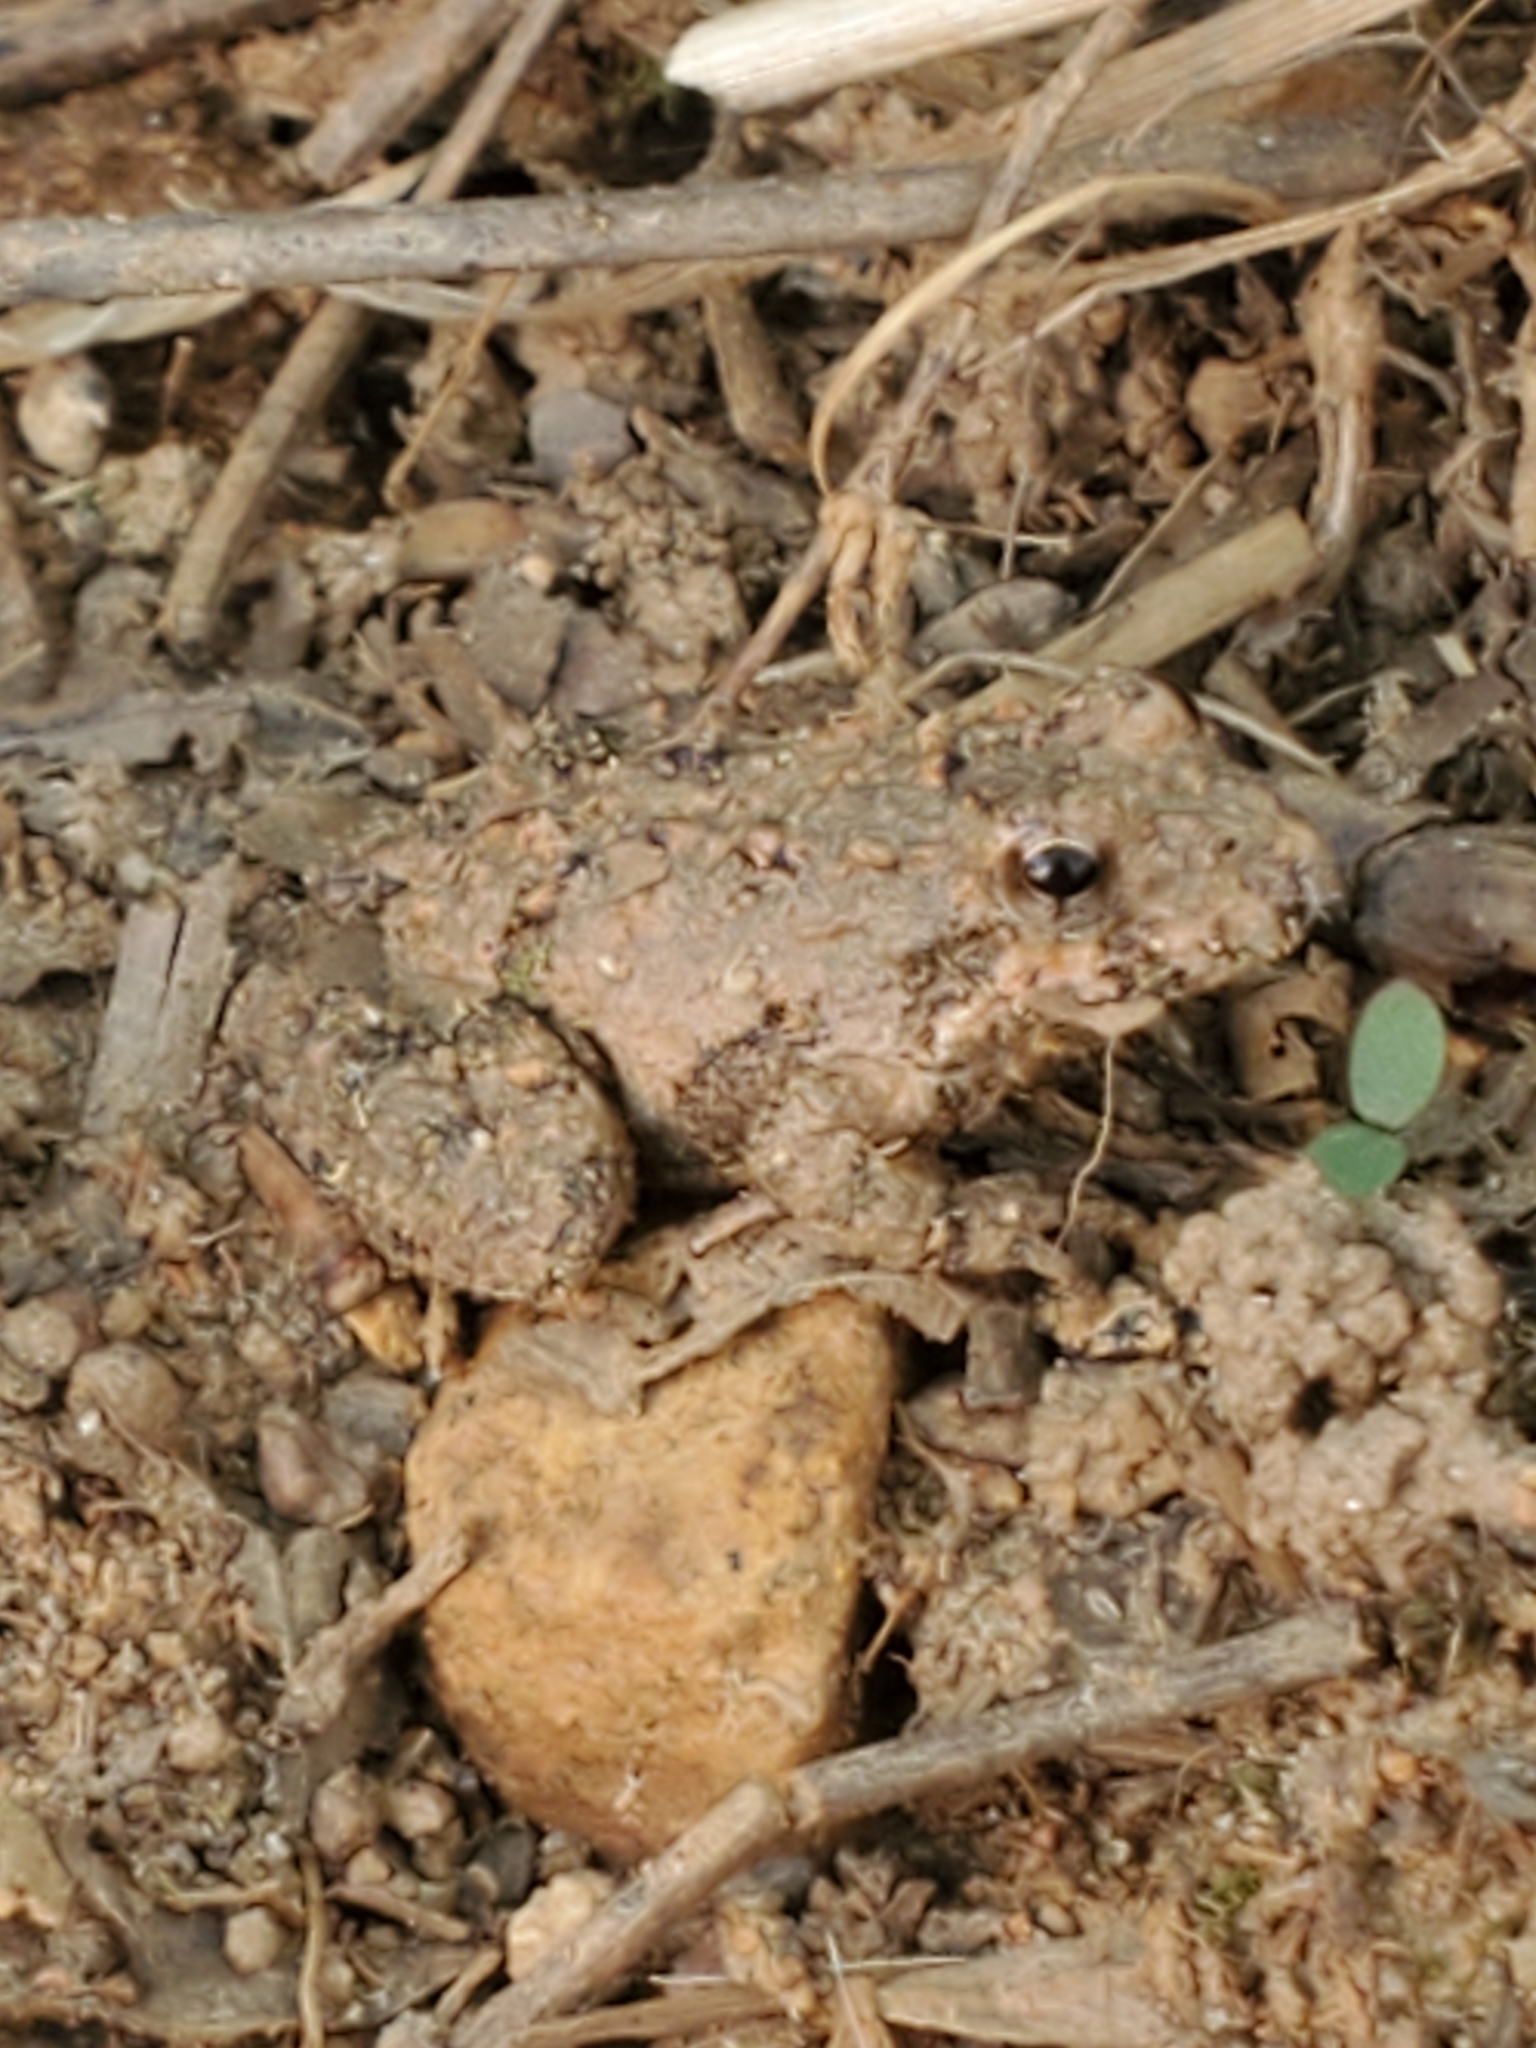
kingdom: Animalia
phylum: Chordata
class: Amphibia
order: Anura
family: Hylidae
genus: Acris
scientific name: Acris crepitans
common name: Northern cricket frog
